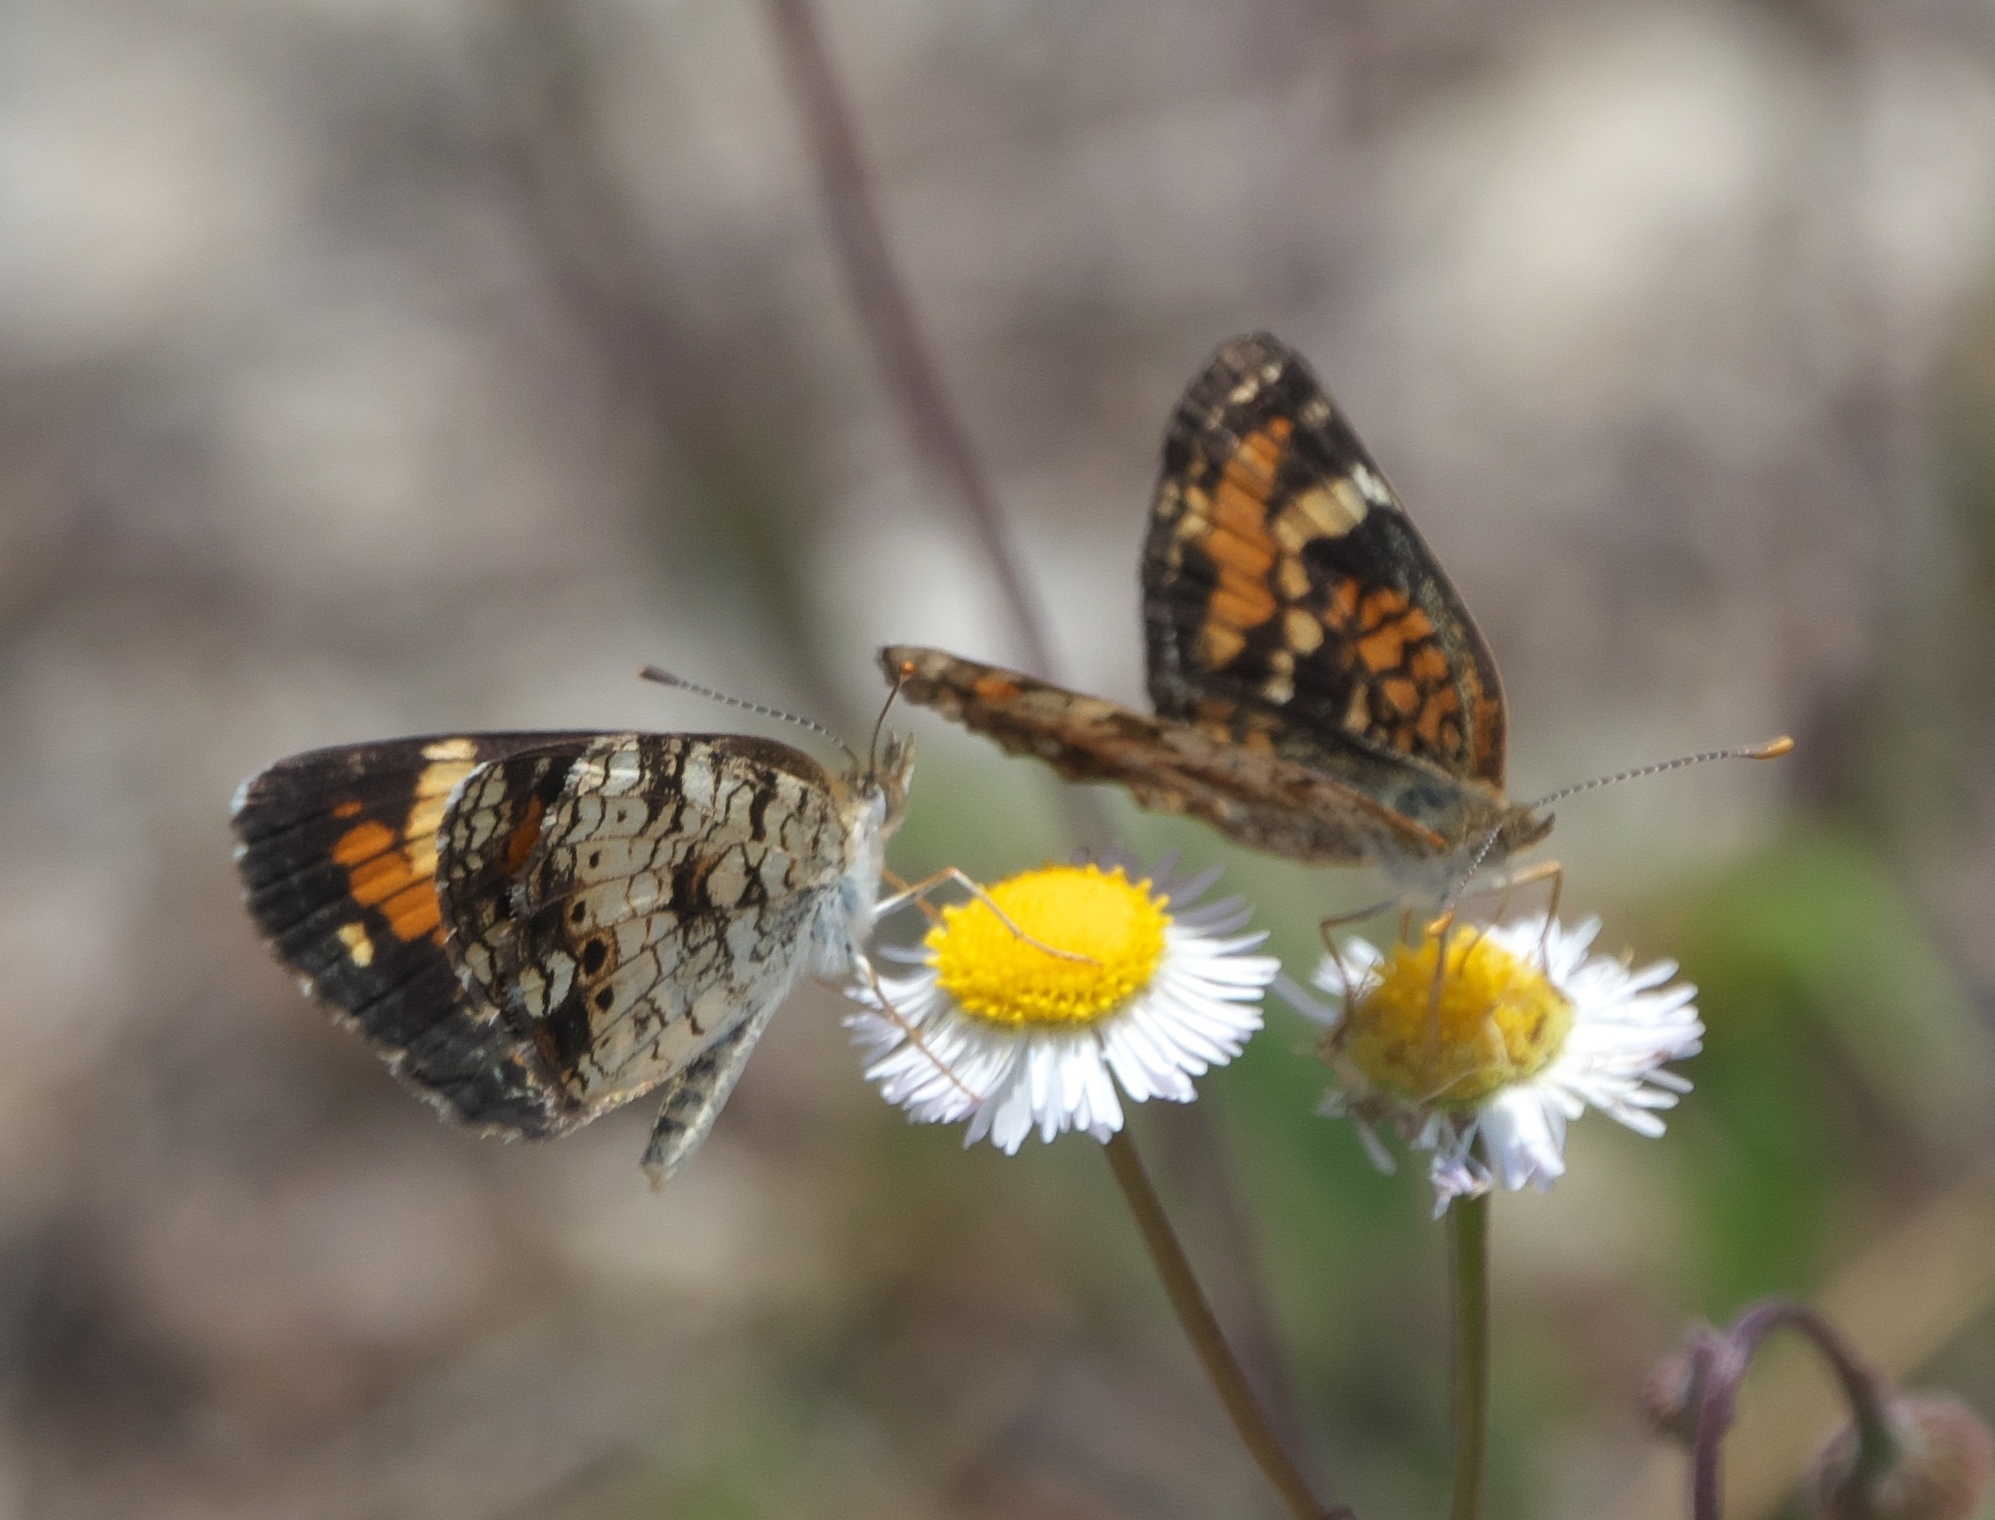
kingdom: Animalia
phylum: Arthropoda
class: Insecta
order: Lepidoptera
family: Nymphalidae
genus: Phyciodes
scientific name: Phyciodes phaon
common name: Phaon crescent
